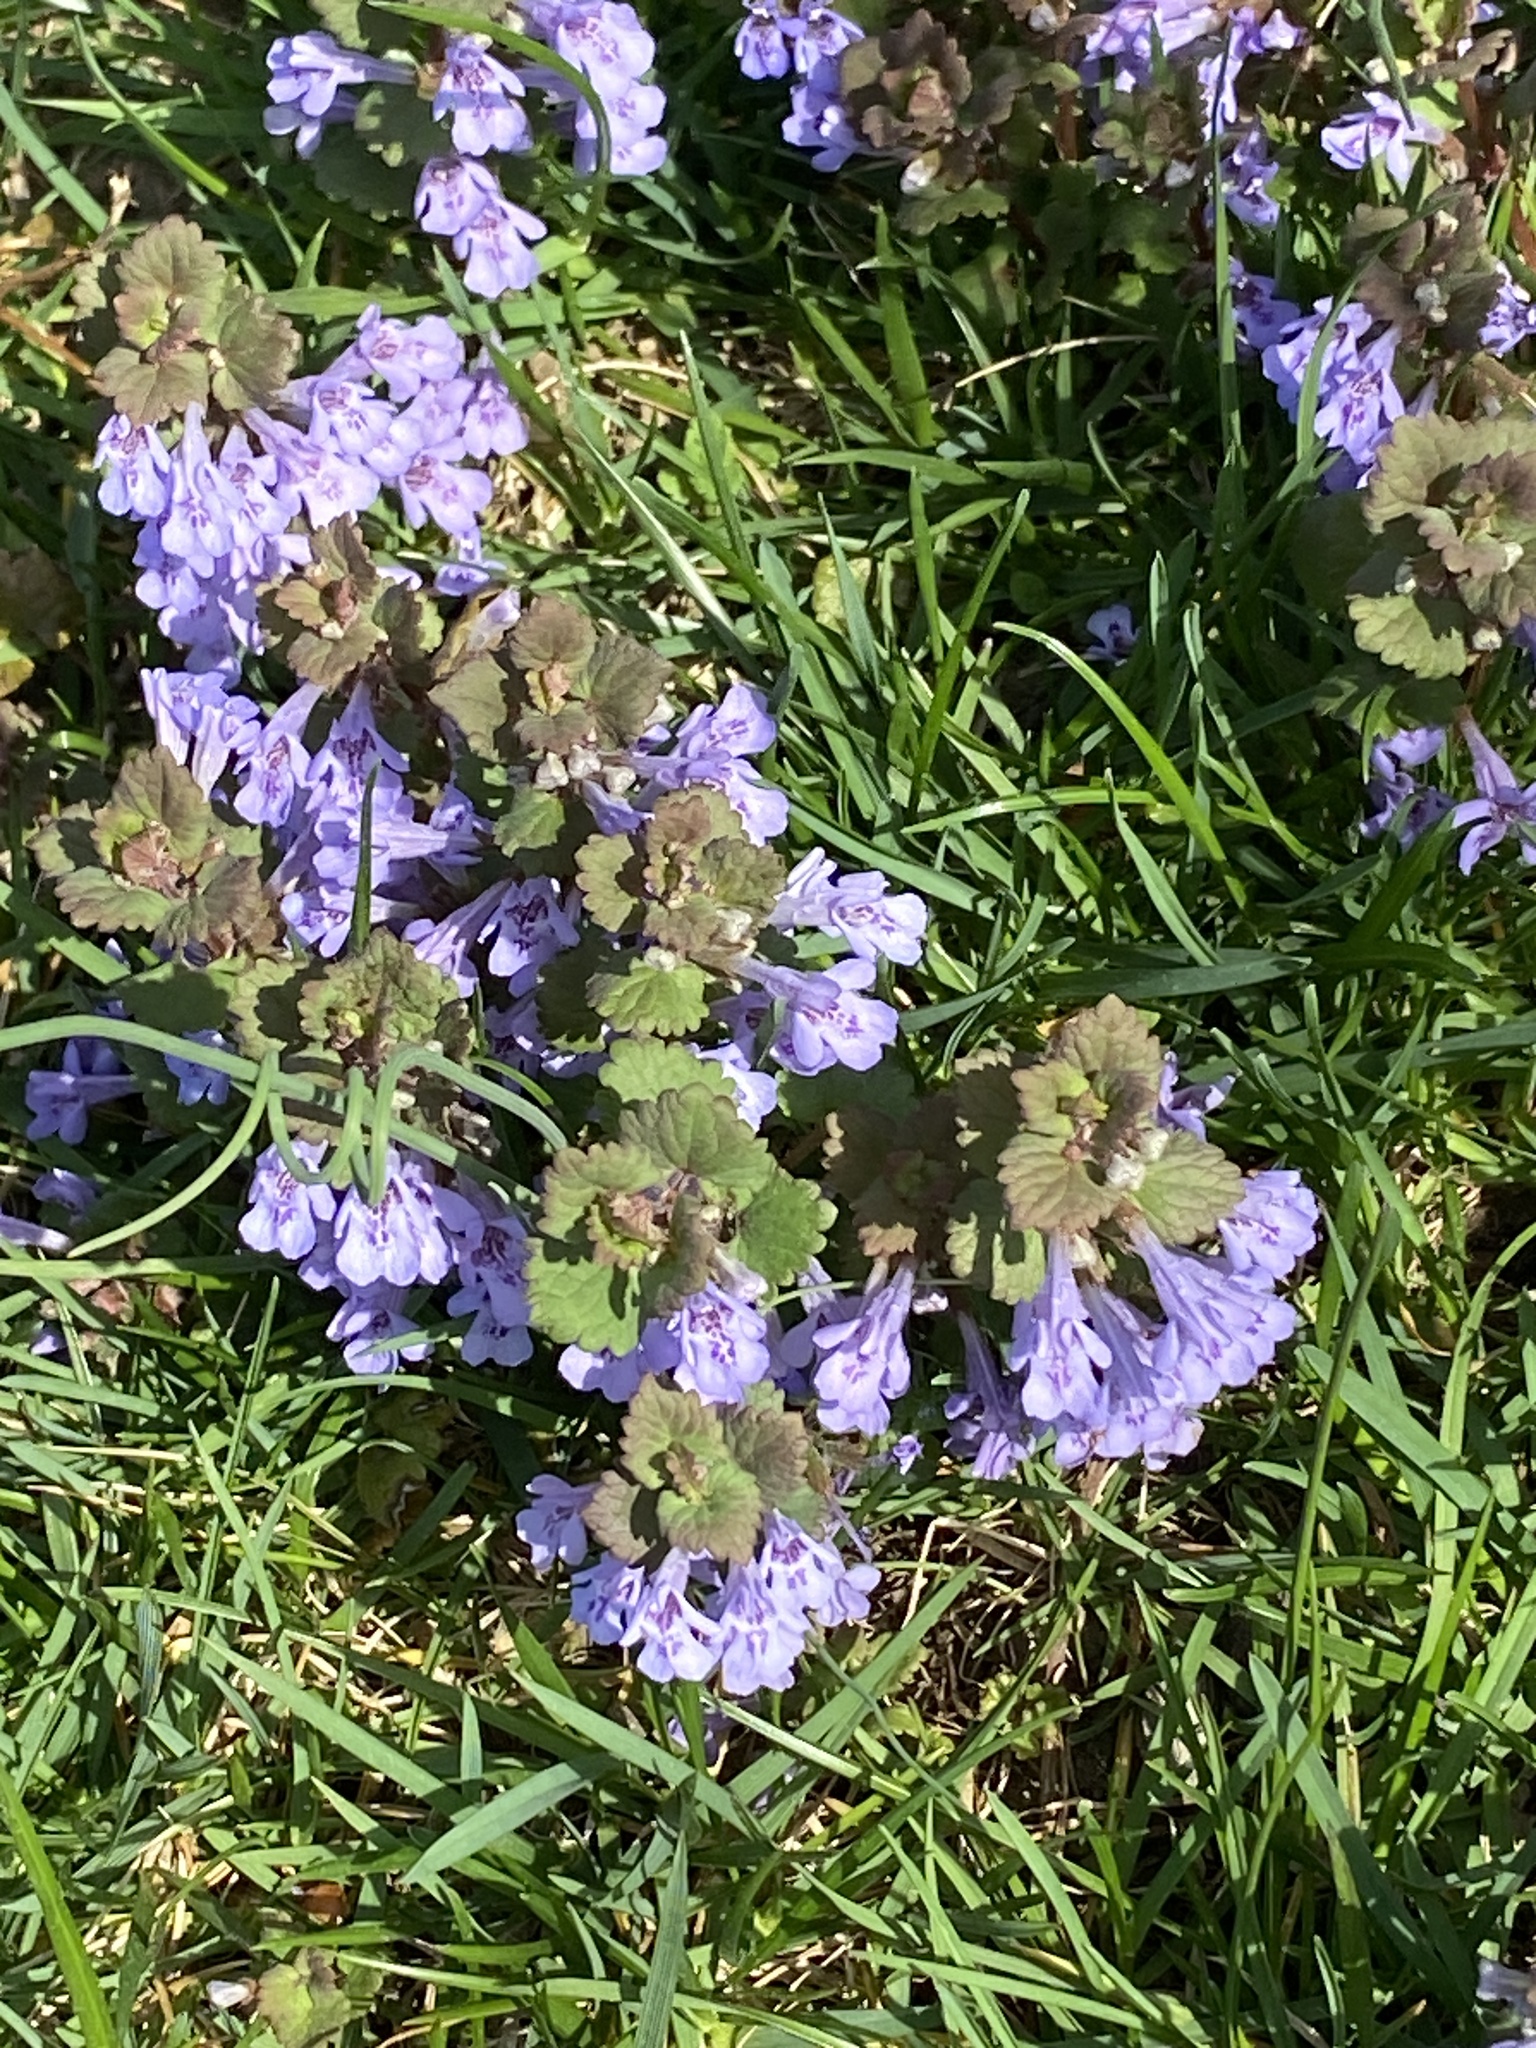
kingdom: Plantae
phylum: Tracheophyta
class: Magnoliopsida
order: Lamiales
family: Lamiaceae
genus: Glechoma
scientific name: Glechoma hederacea
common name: Ground ivy
